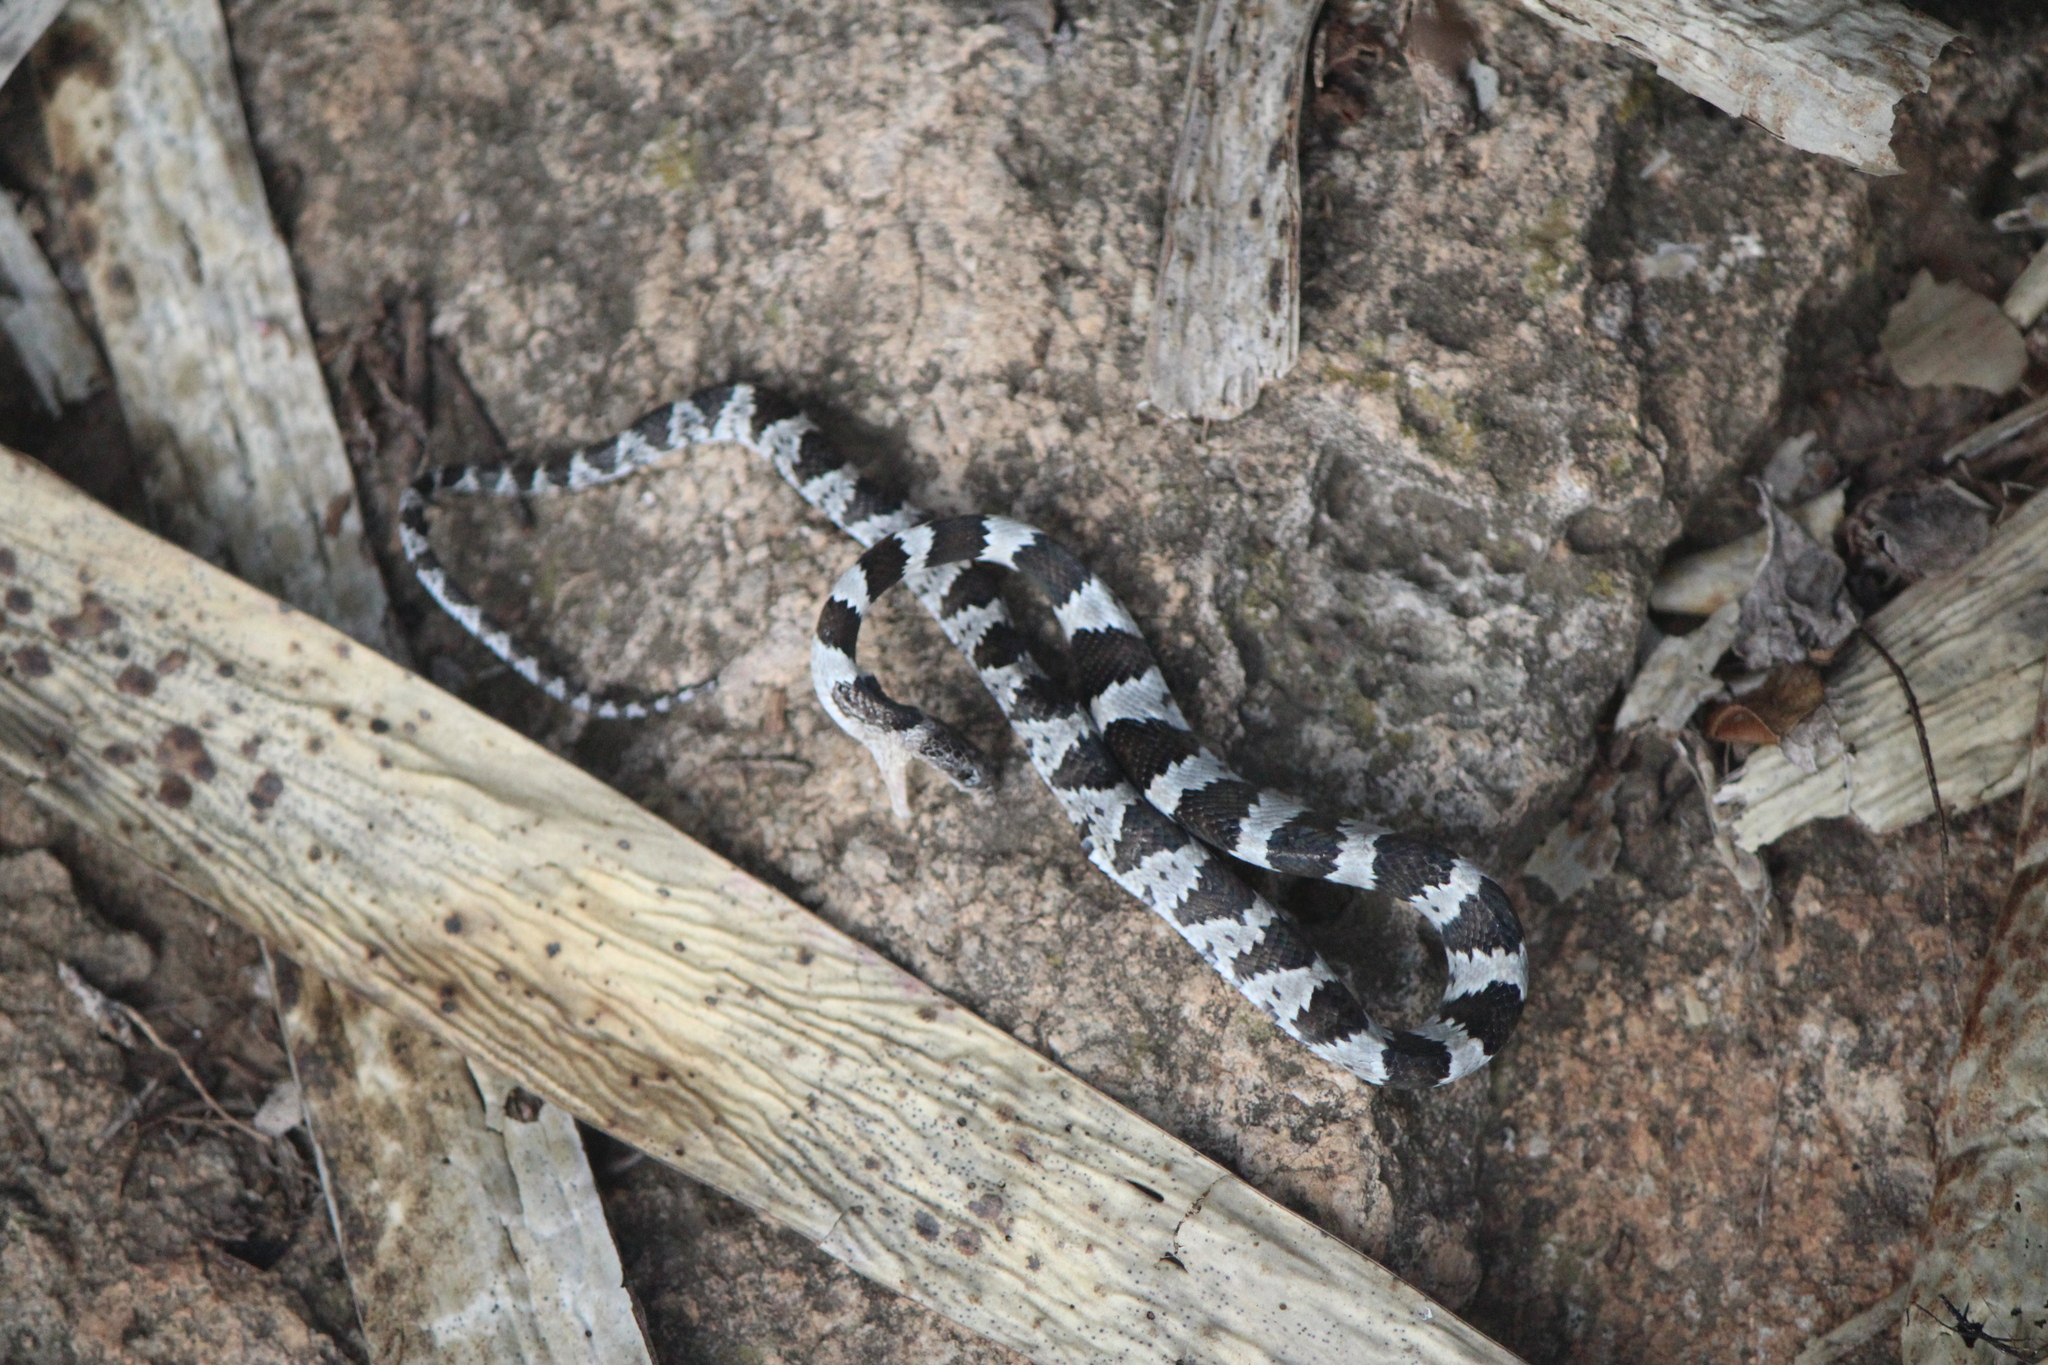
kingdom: Animalia
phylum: Chordata
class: Squamata
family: Colubridae
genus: Trimorphodon
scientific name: Trimorphodon tau
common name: Mexican lyre snake
